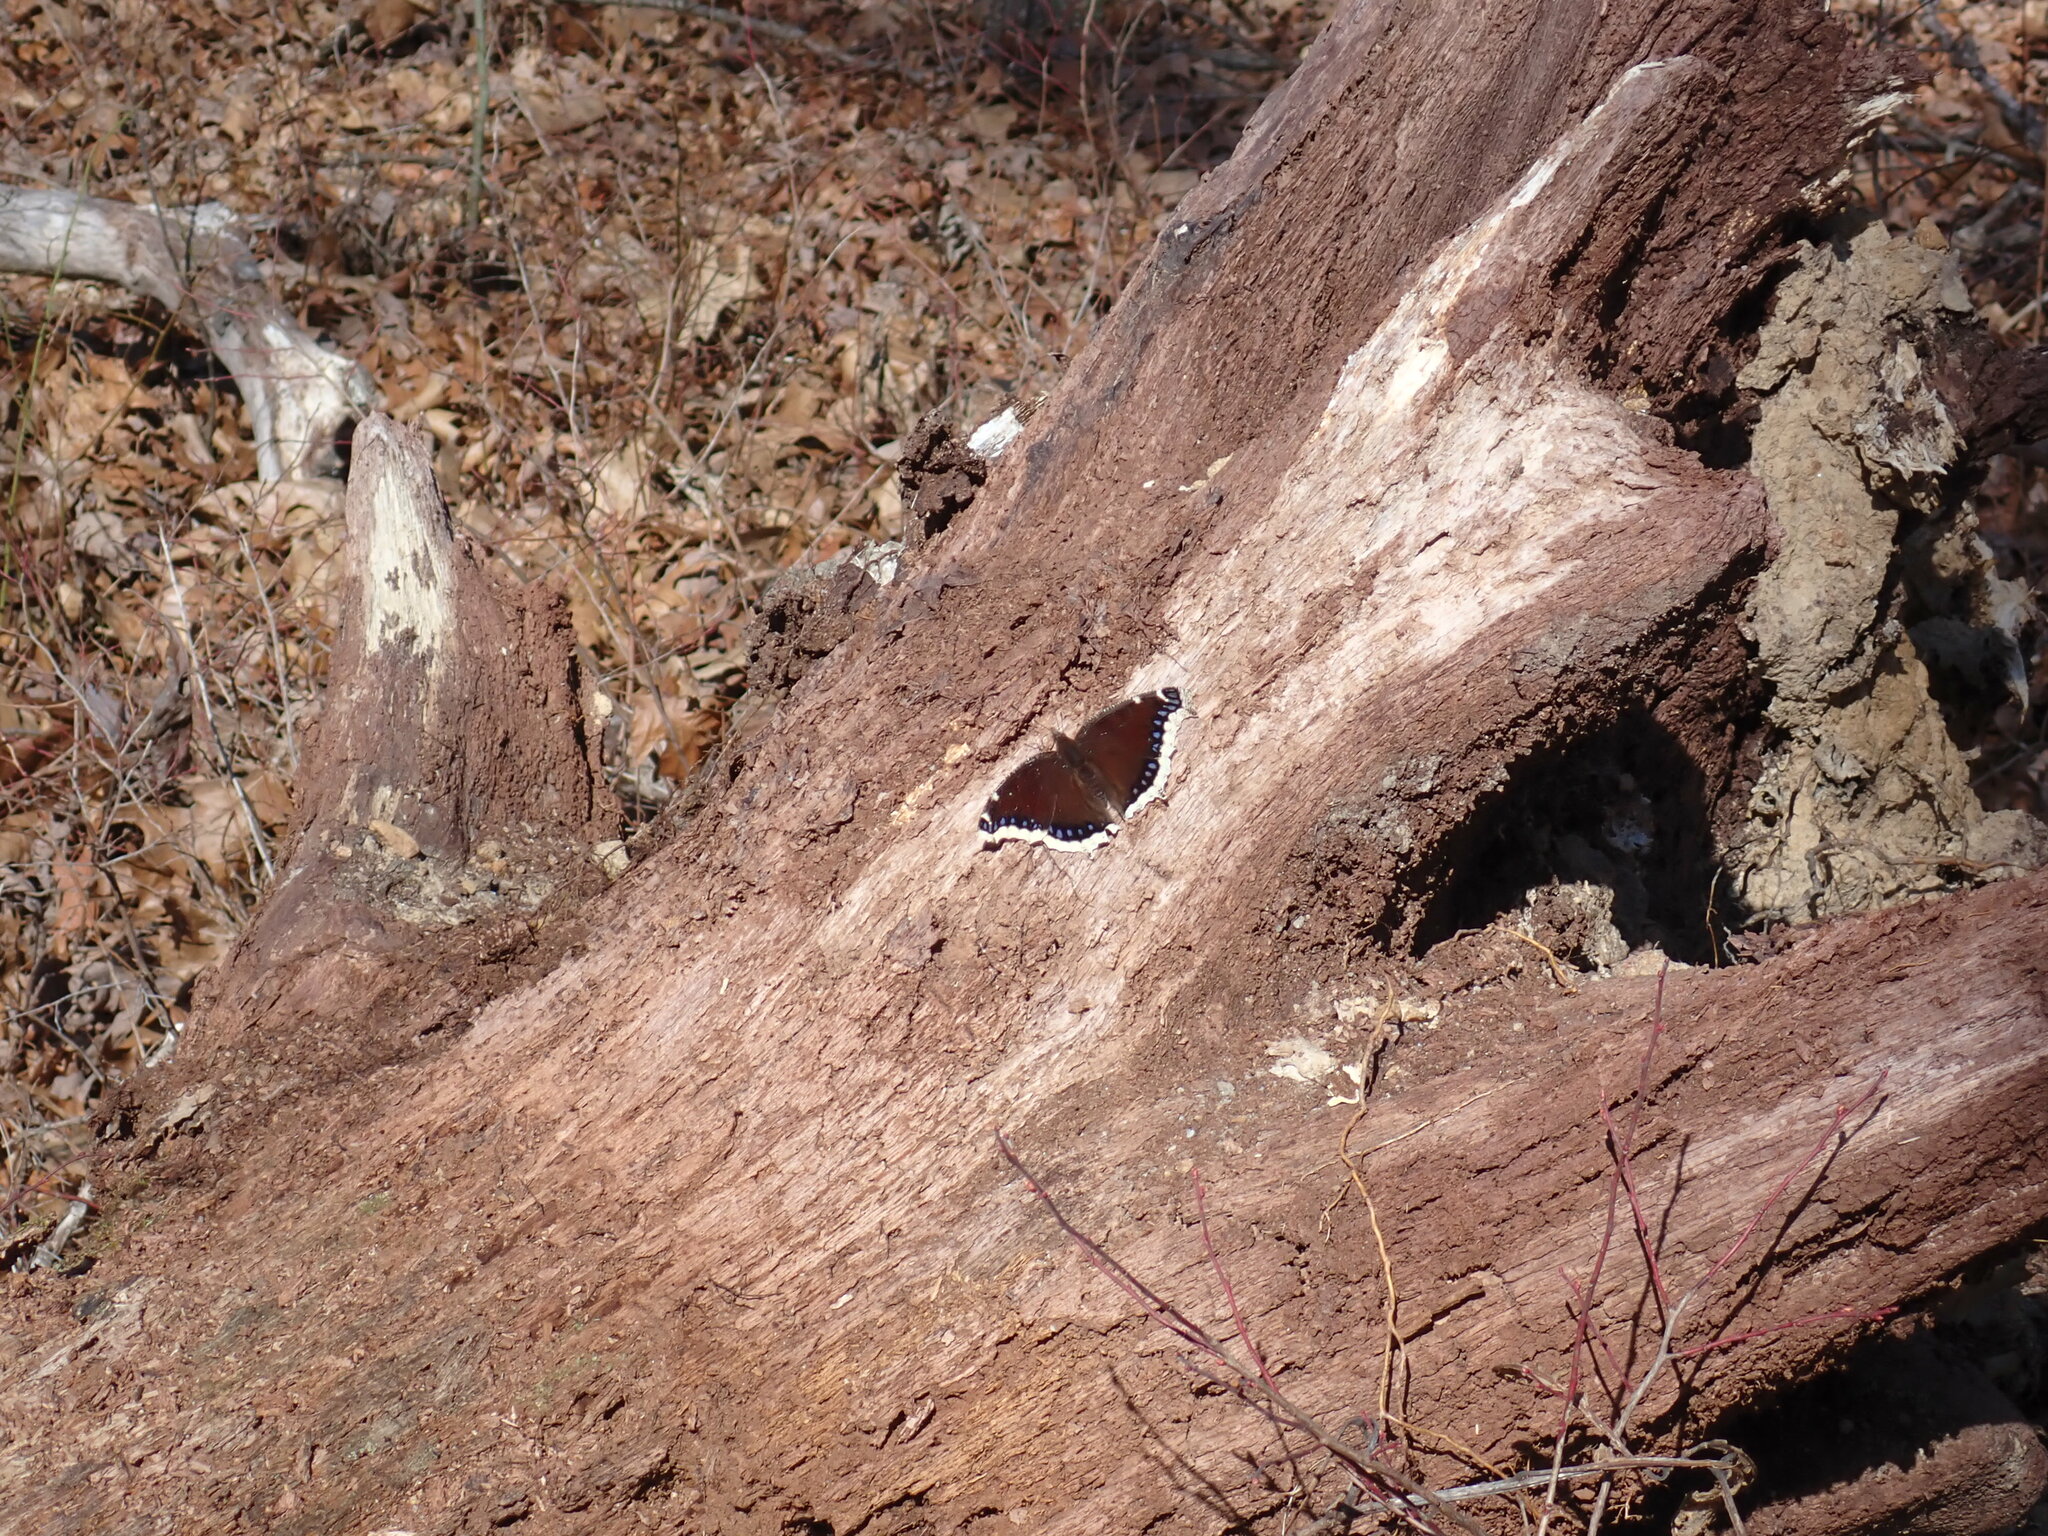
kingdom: Animalia
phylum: Arthropoda
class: Insecta
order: Lepidoptera
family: Nymphalidae
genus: Nymphalis
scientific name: Nymphalis antiopa
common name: Camberwell beauty
